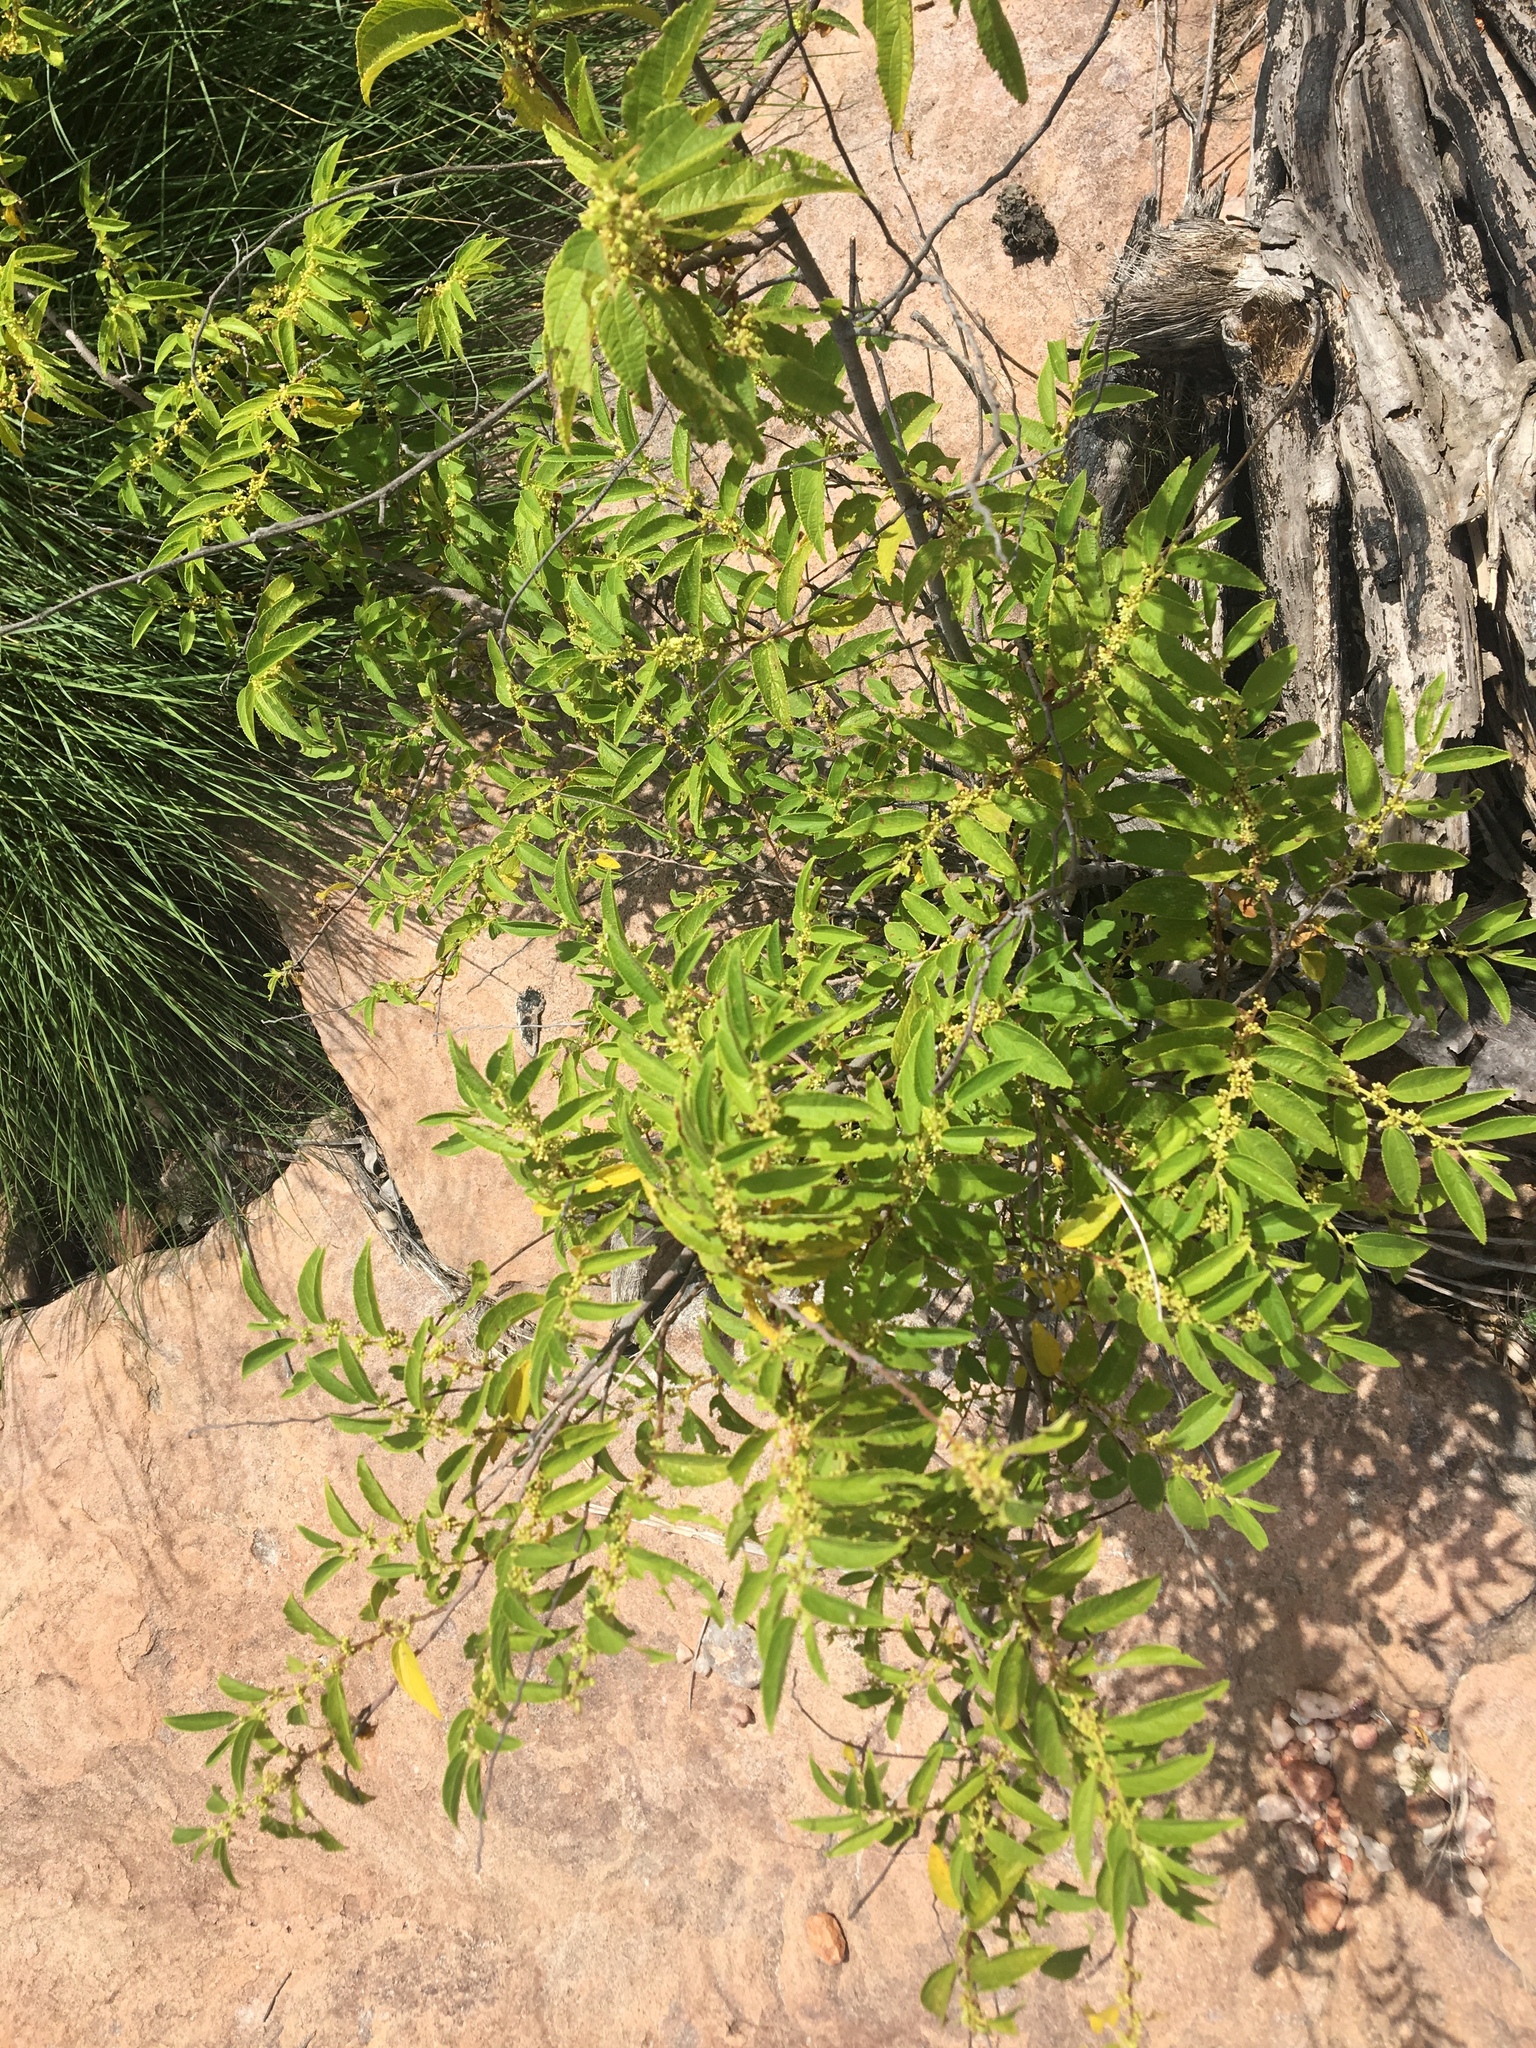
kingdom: Plantae
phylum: Tracheophyta
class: Magnoliopsida
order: Rosales
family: Cannabaceae
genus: Trema
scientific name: Trema tomentosum
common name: Peach-leaf-poisonbush
